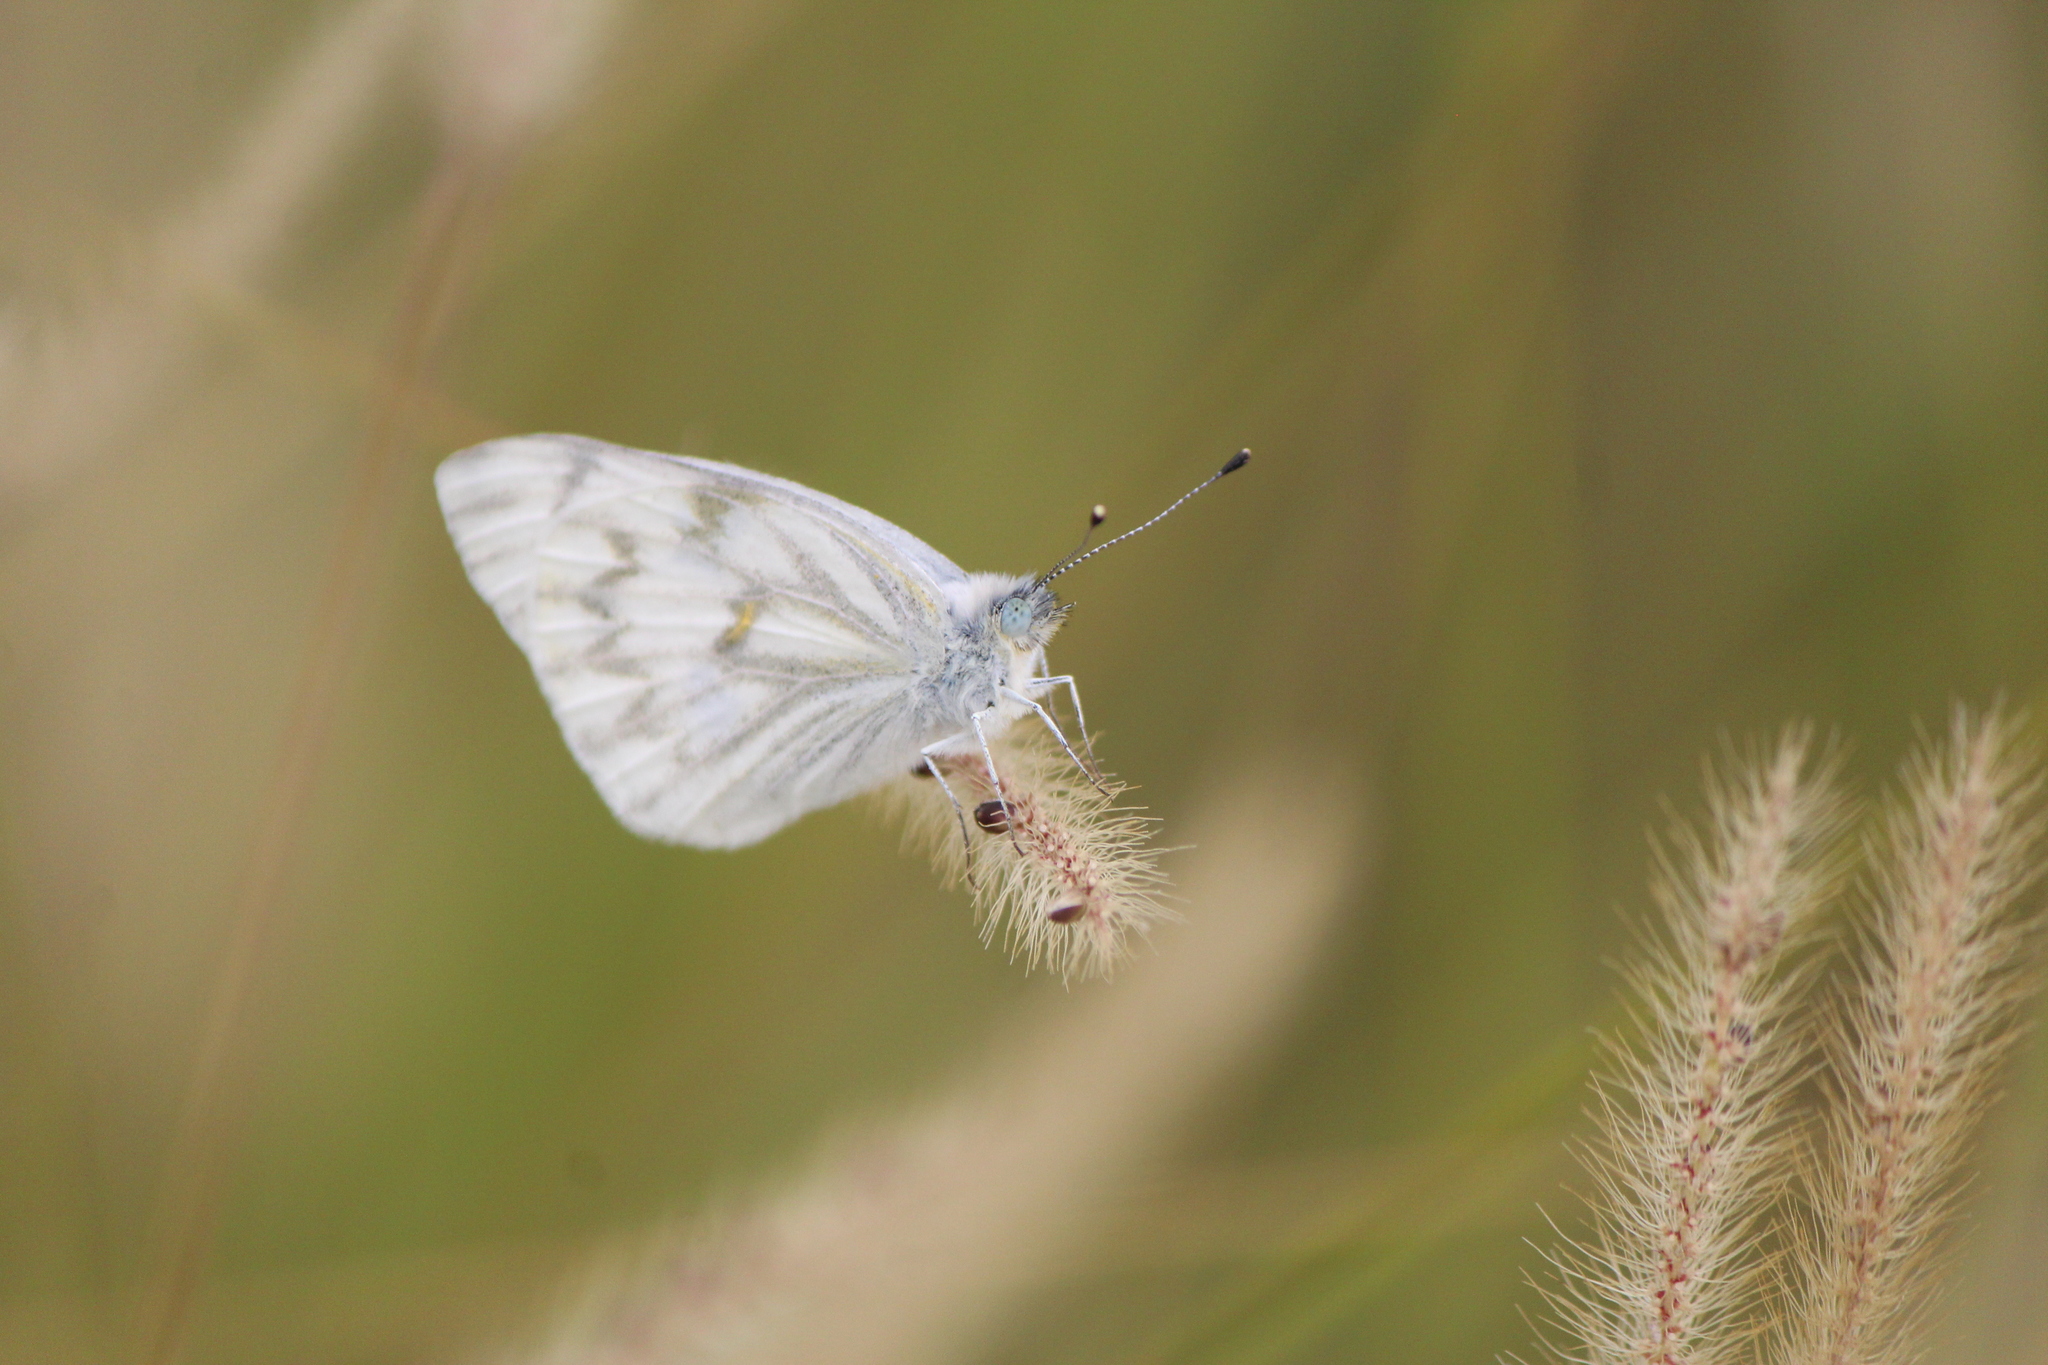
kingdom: Animalia
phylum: Arthropoda
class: Insecta
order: Lepidoptera
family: Pieridae
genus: Pontia
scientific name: Pontia protodice
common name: Checkered white
